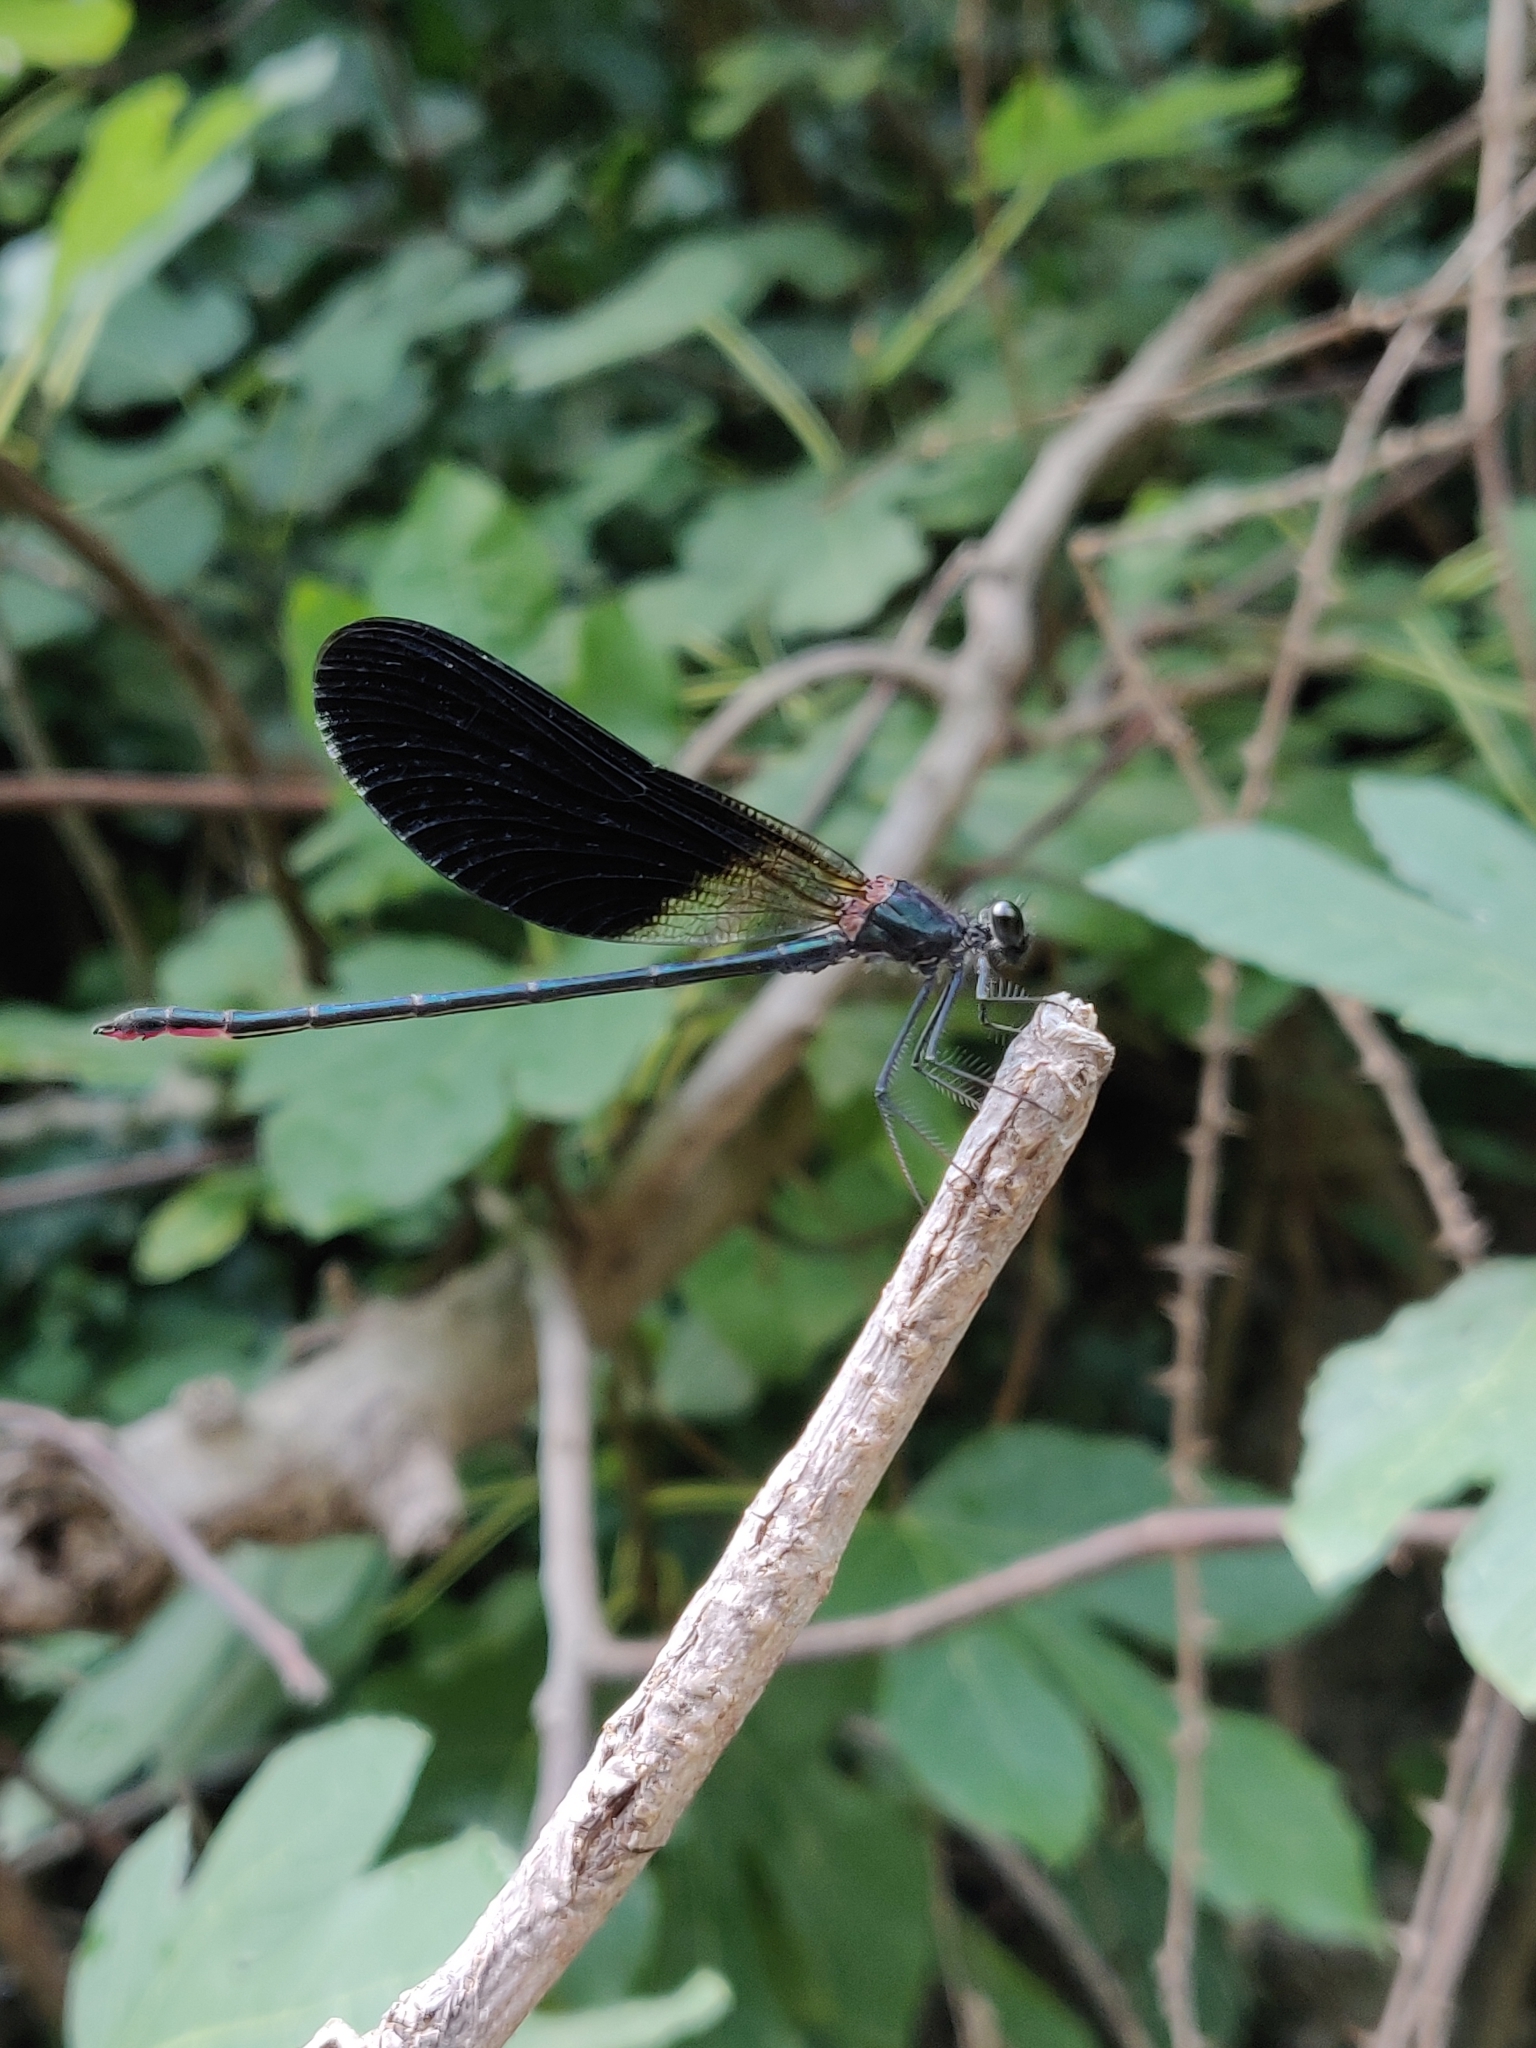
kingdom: Animalia
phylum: Arthropoda
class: Insecta
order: Odonata
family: Calopterygidae
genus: Calopteryx
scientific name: Calopteryx haemorrhoidalis
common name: Copper demoiselle
